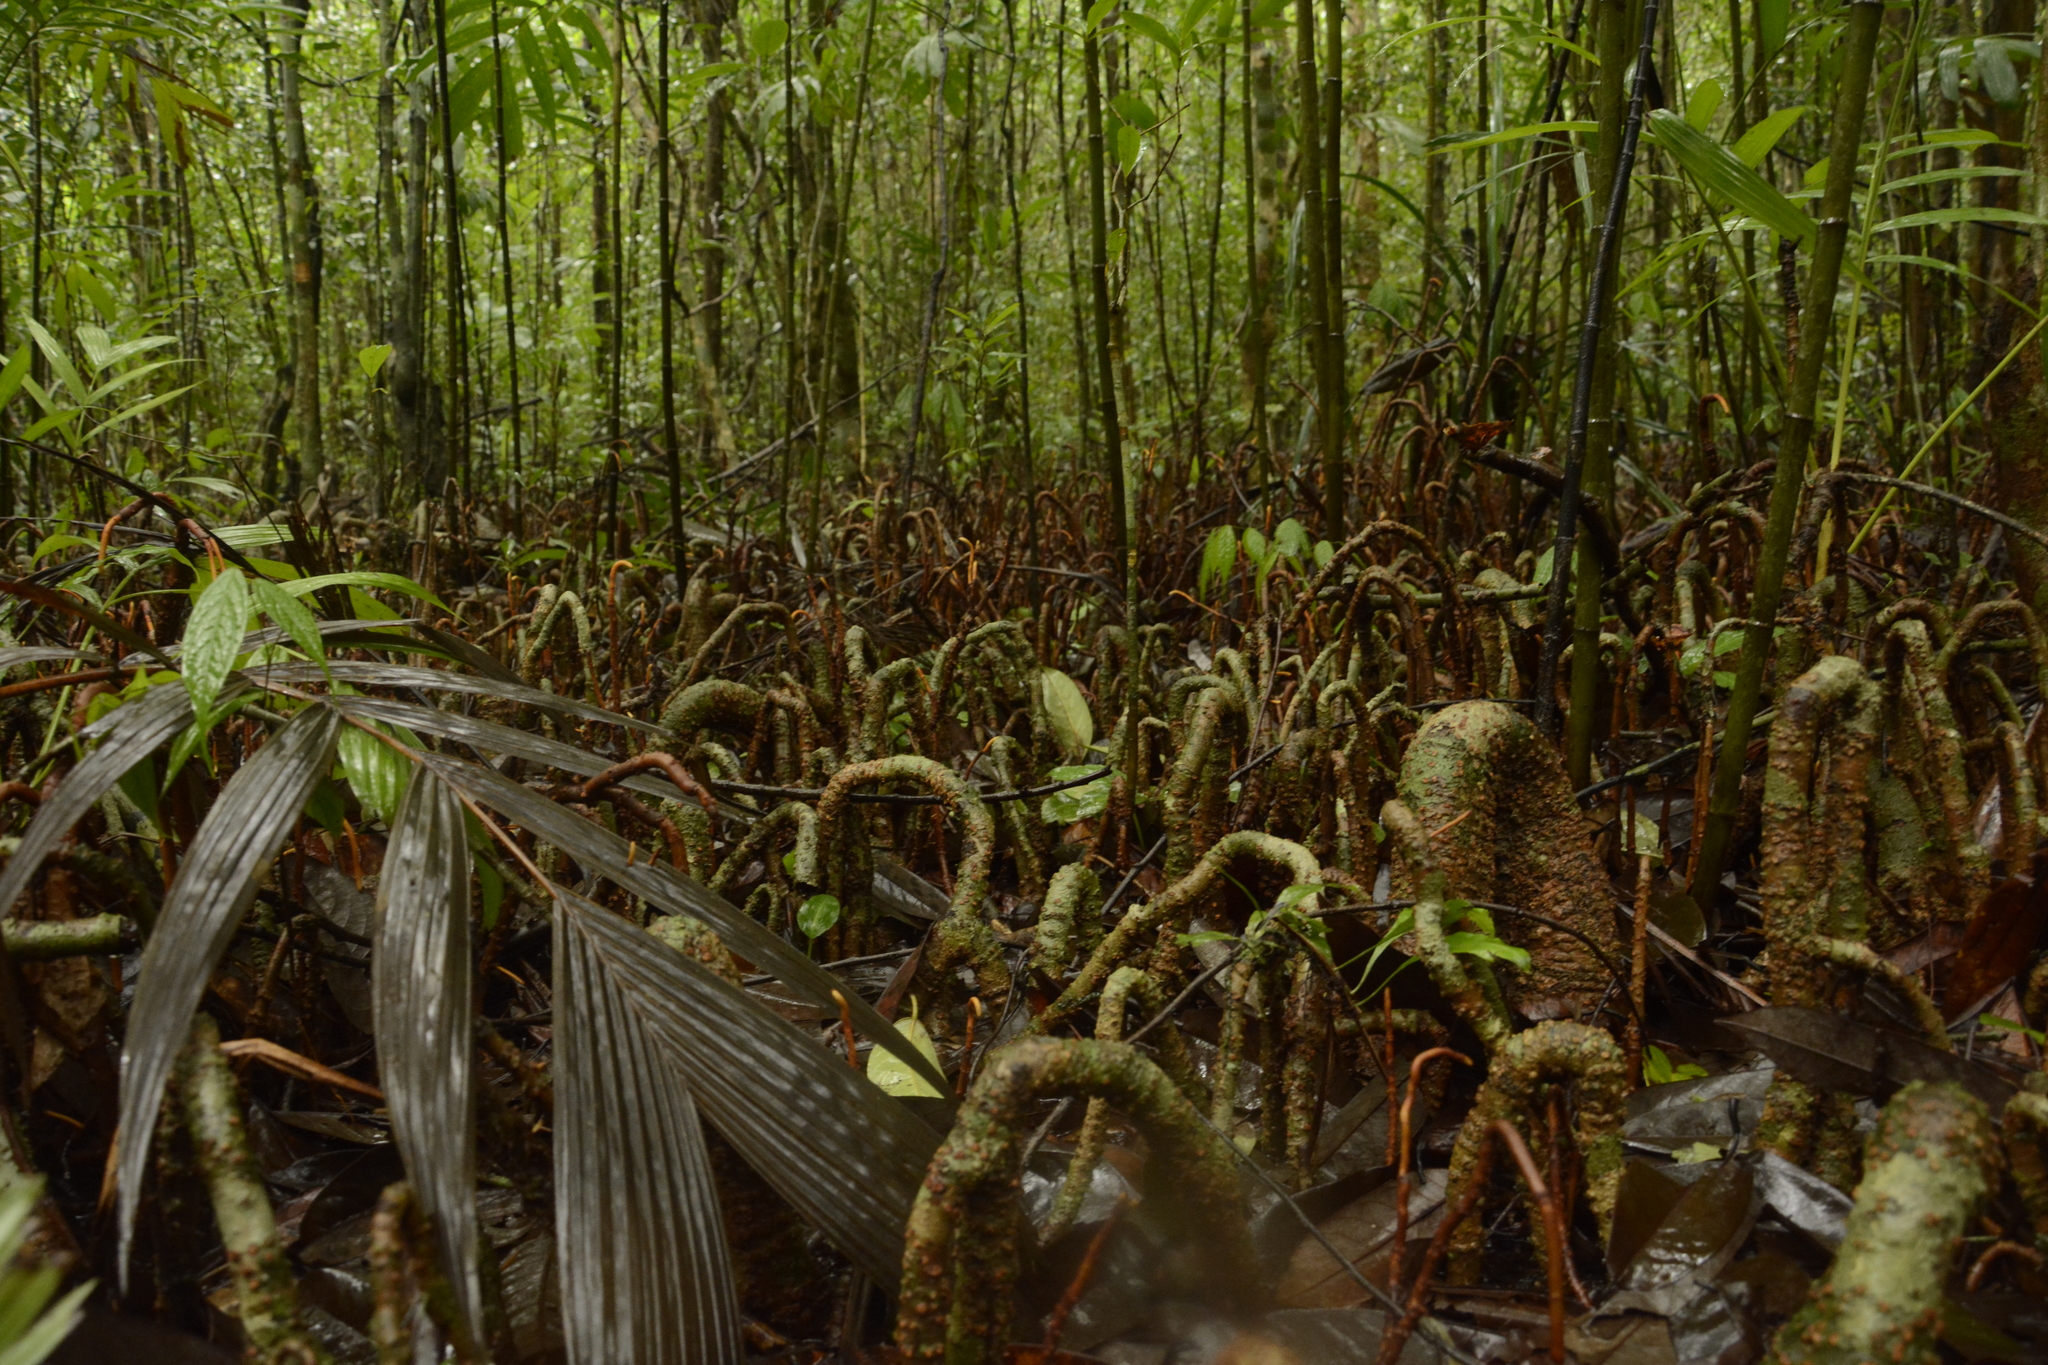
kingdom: Plantae
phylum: Tracheophyta
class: Magnoliopsida
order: Magnoliales
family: Myristicaceae
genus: Gymnacranthera
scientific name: Gymnacranthera canarica
